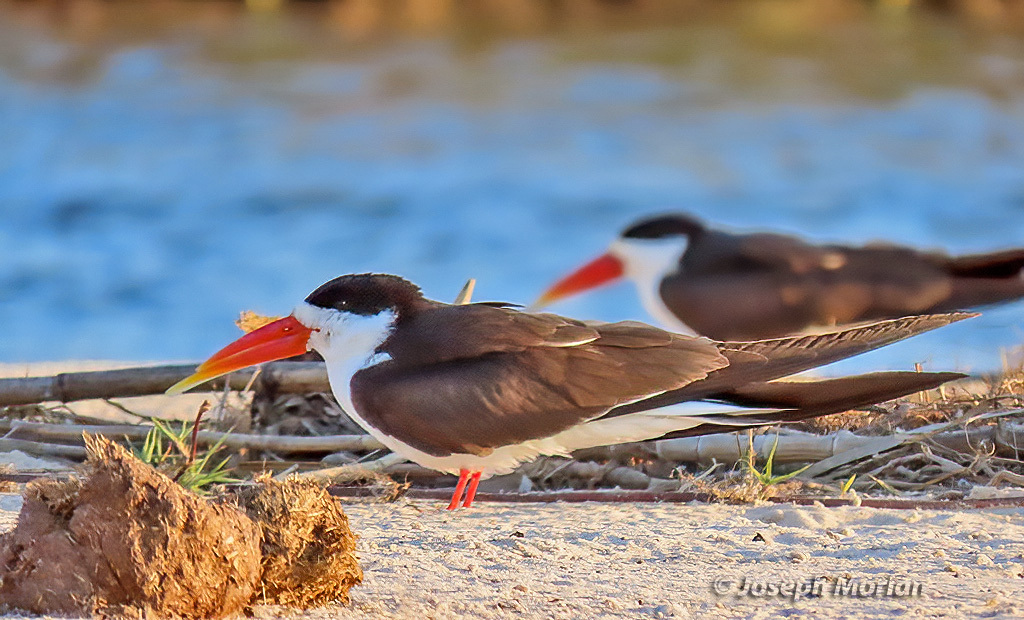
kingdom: Animalia
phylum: Chordata
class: Aves
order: Charadriiformes
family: Laridae
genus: Rynchops
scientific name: Rynchops flavirostris
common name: African skimmer
